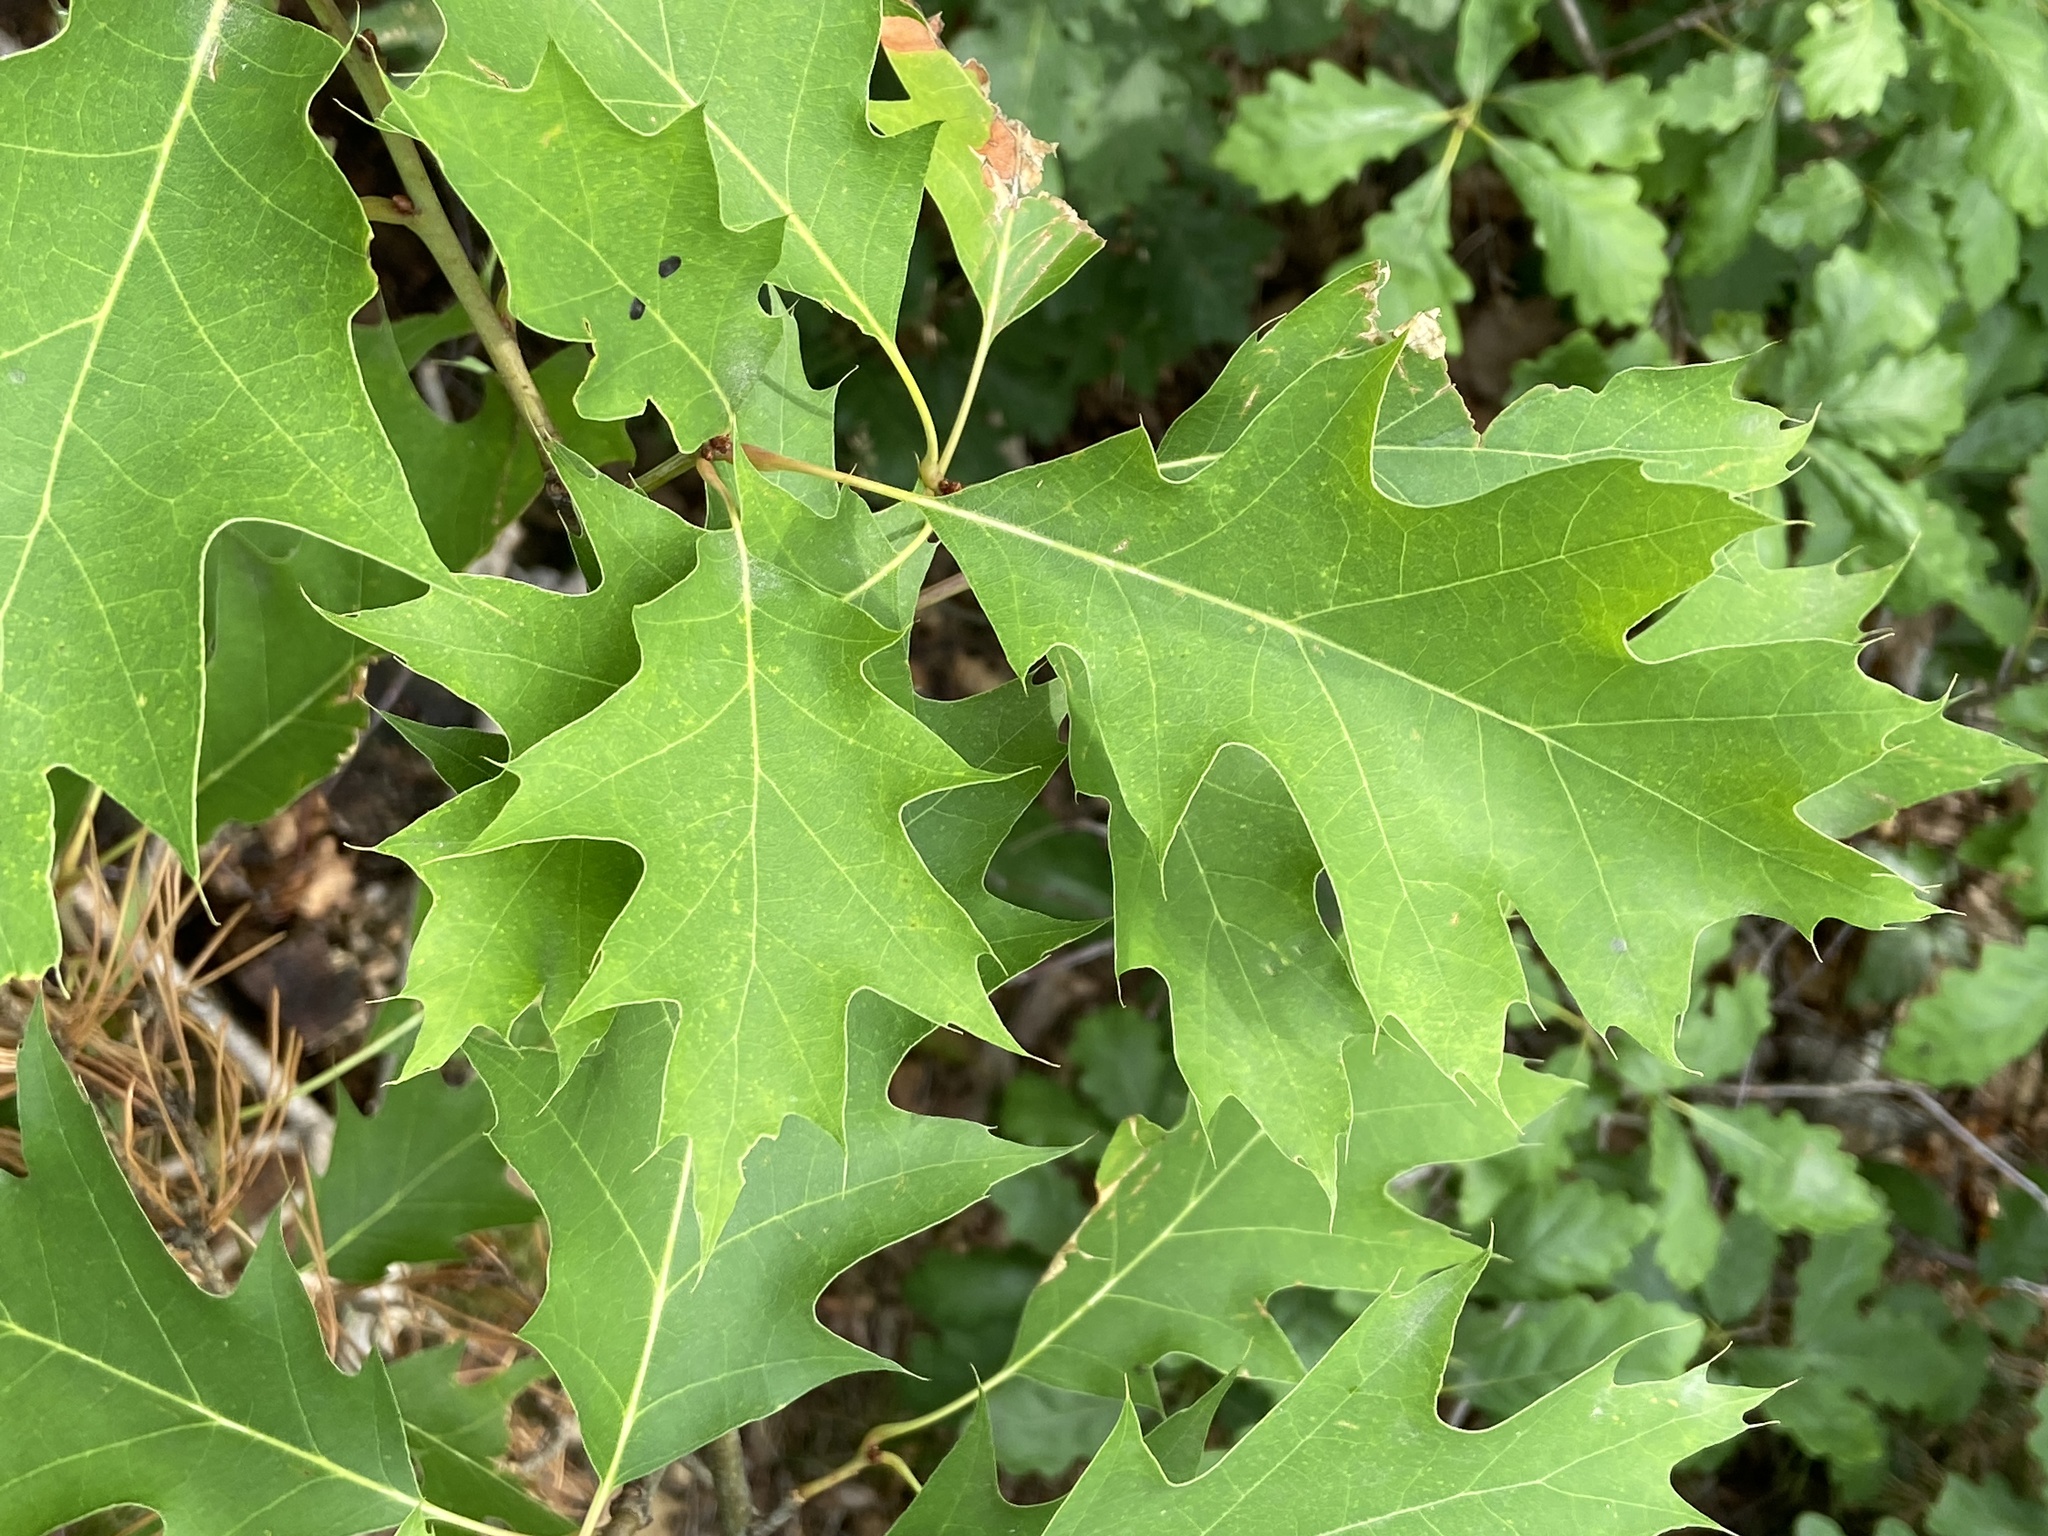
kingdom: Plantae
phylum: Tracheophyta
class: Magnoliopsida
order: Fagales
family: Fagaceae
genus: Quercus
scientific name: Quercus rubra
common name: Red oak
